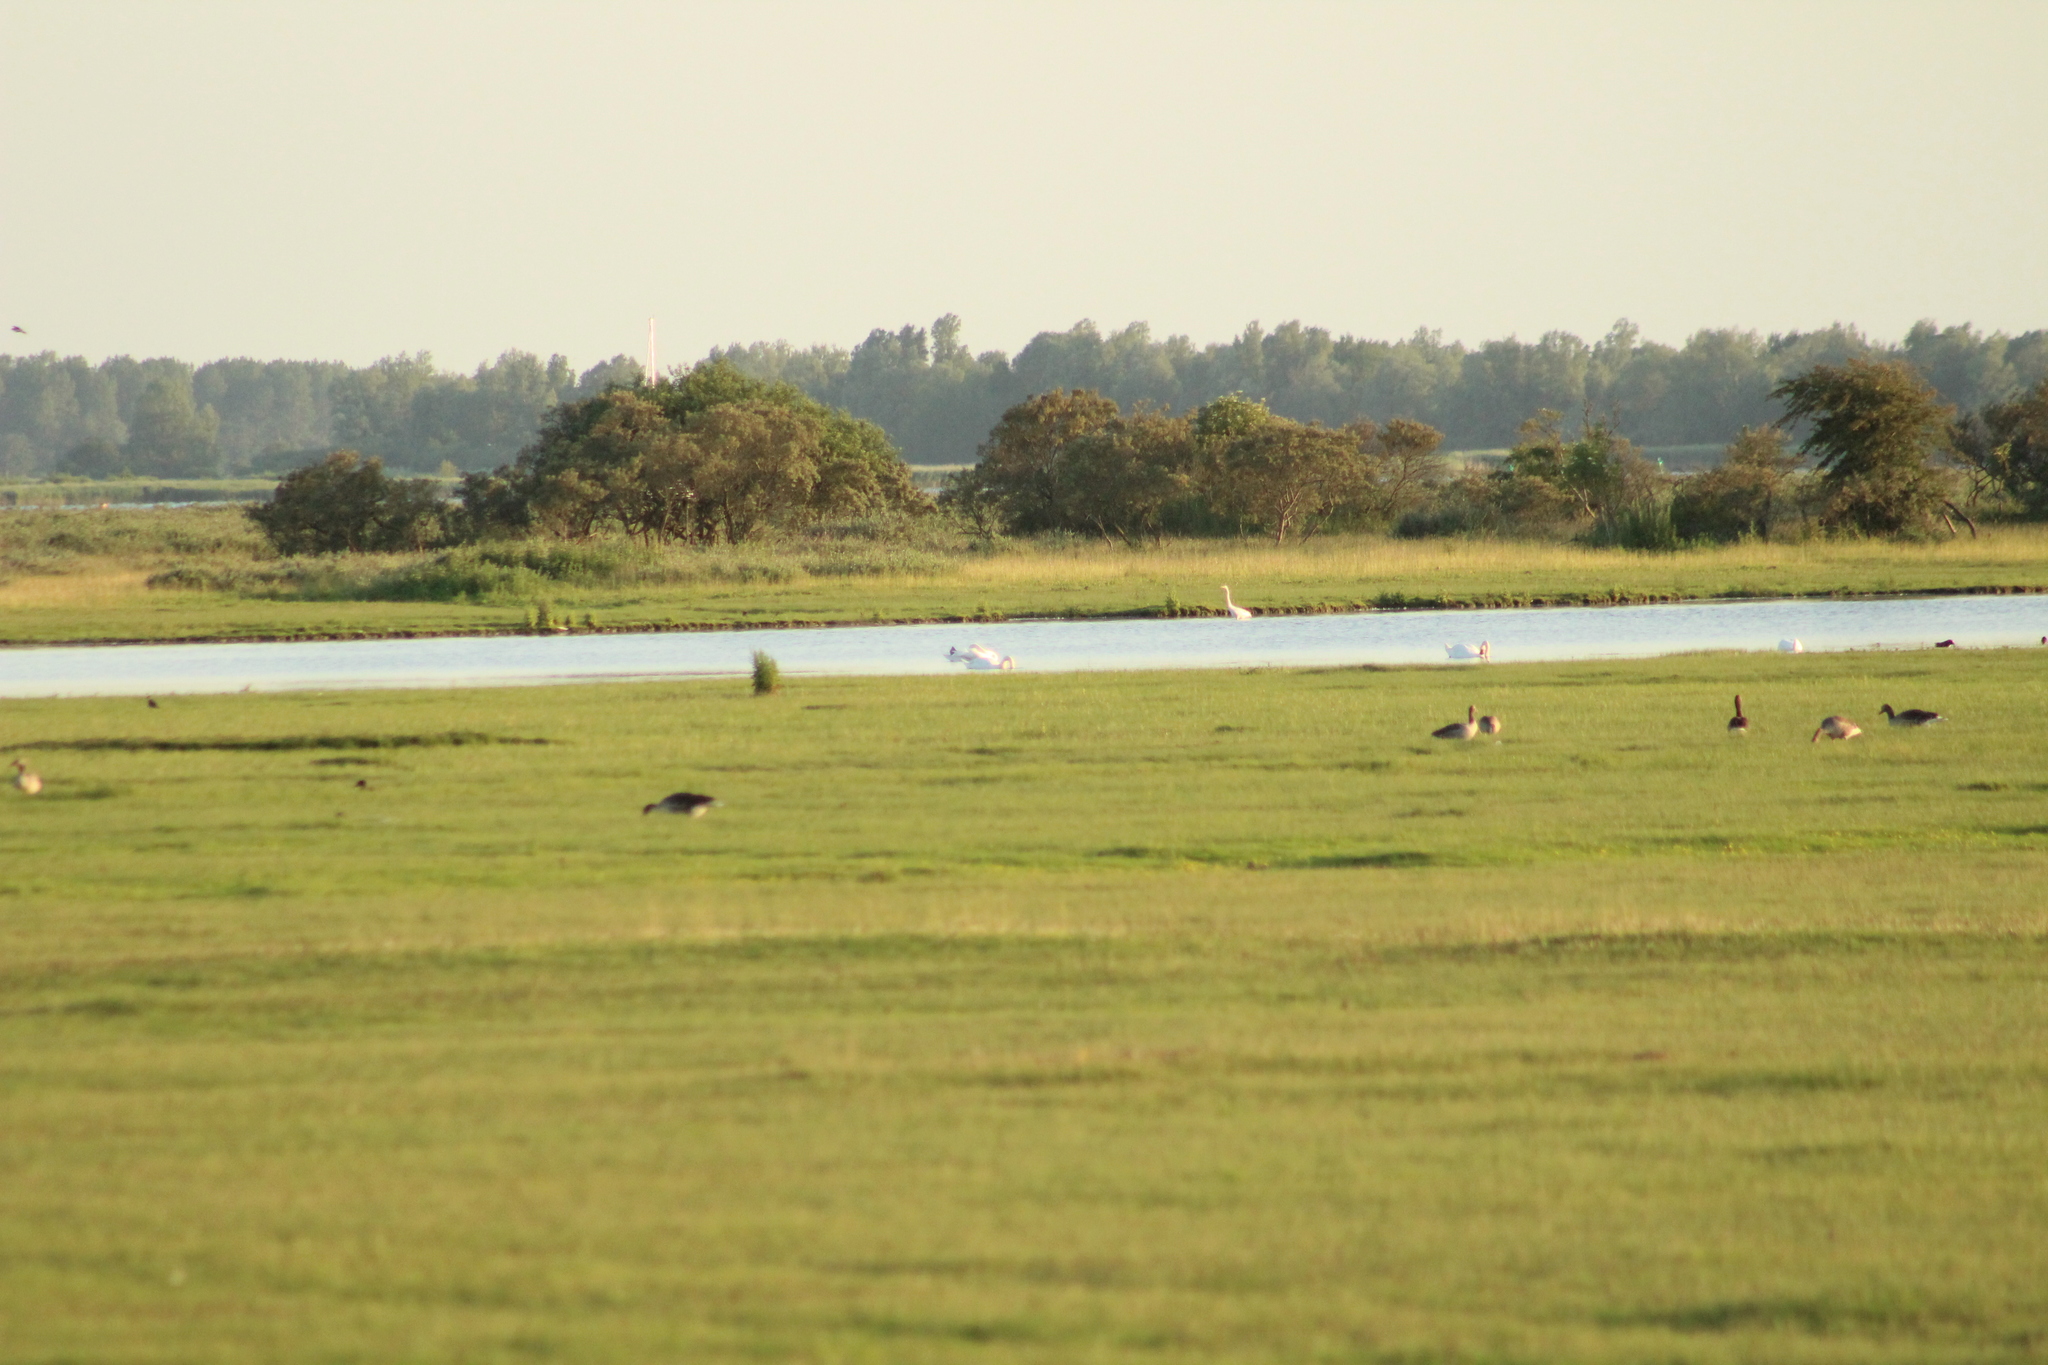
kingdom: Animalia
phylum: Chordata
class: Aves
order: Anseriformes
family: Anatidae
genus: Cygnus
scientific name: Cygnus olor
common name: Mute swan
